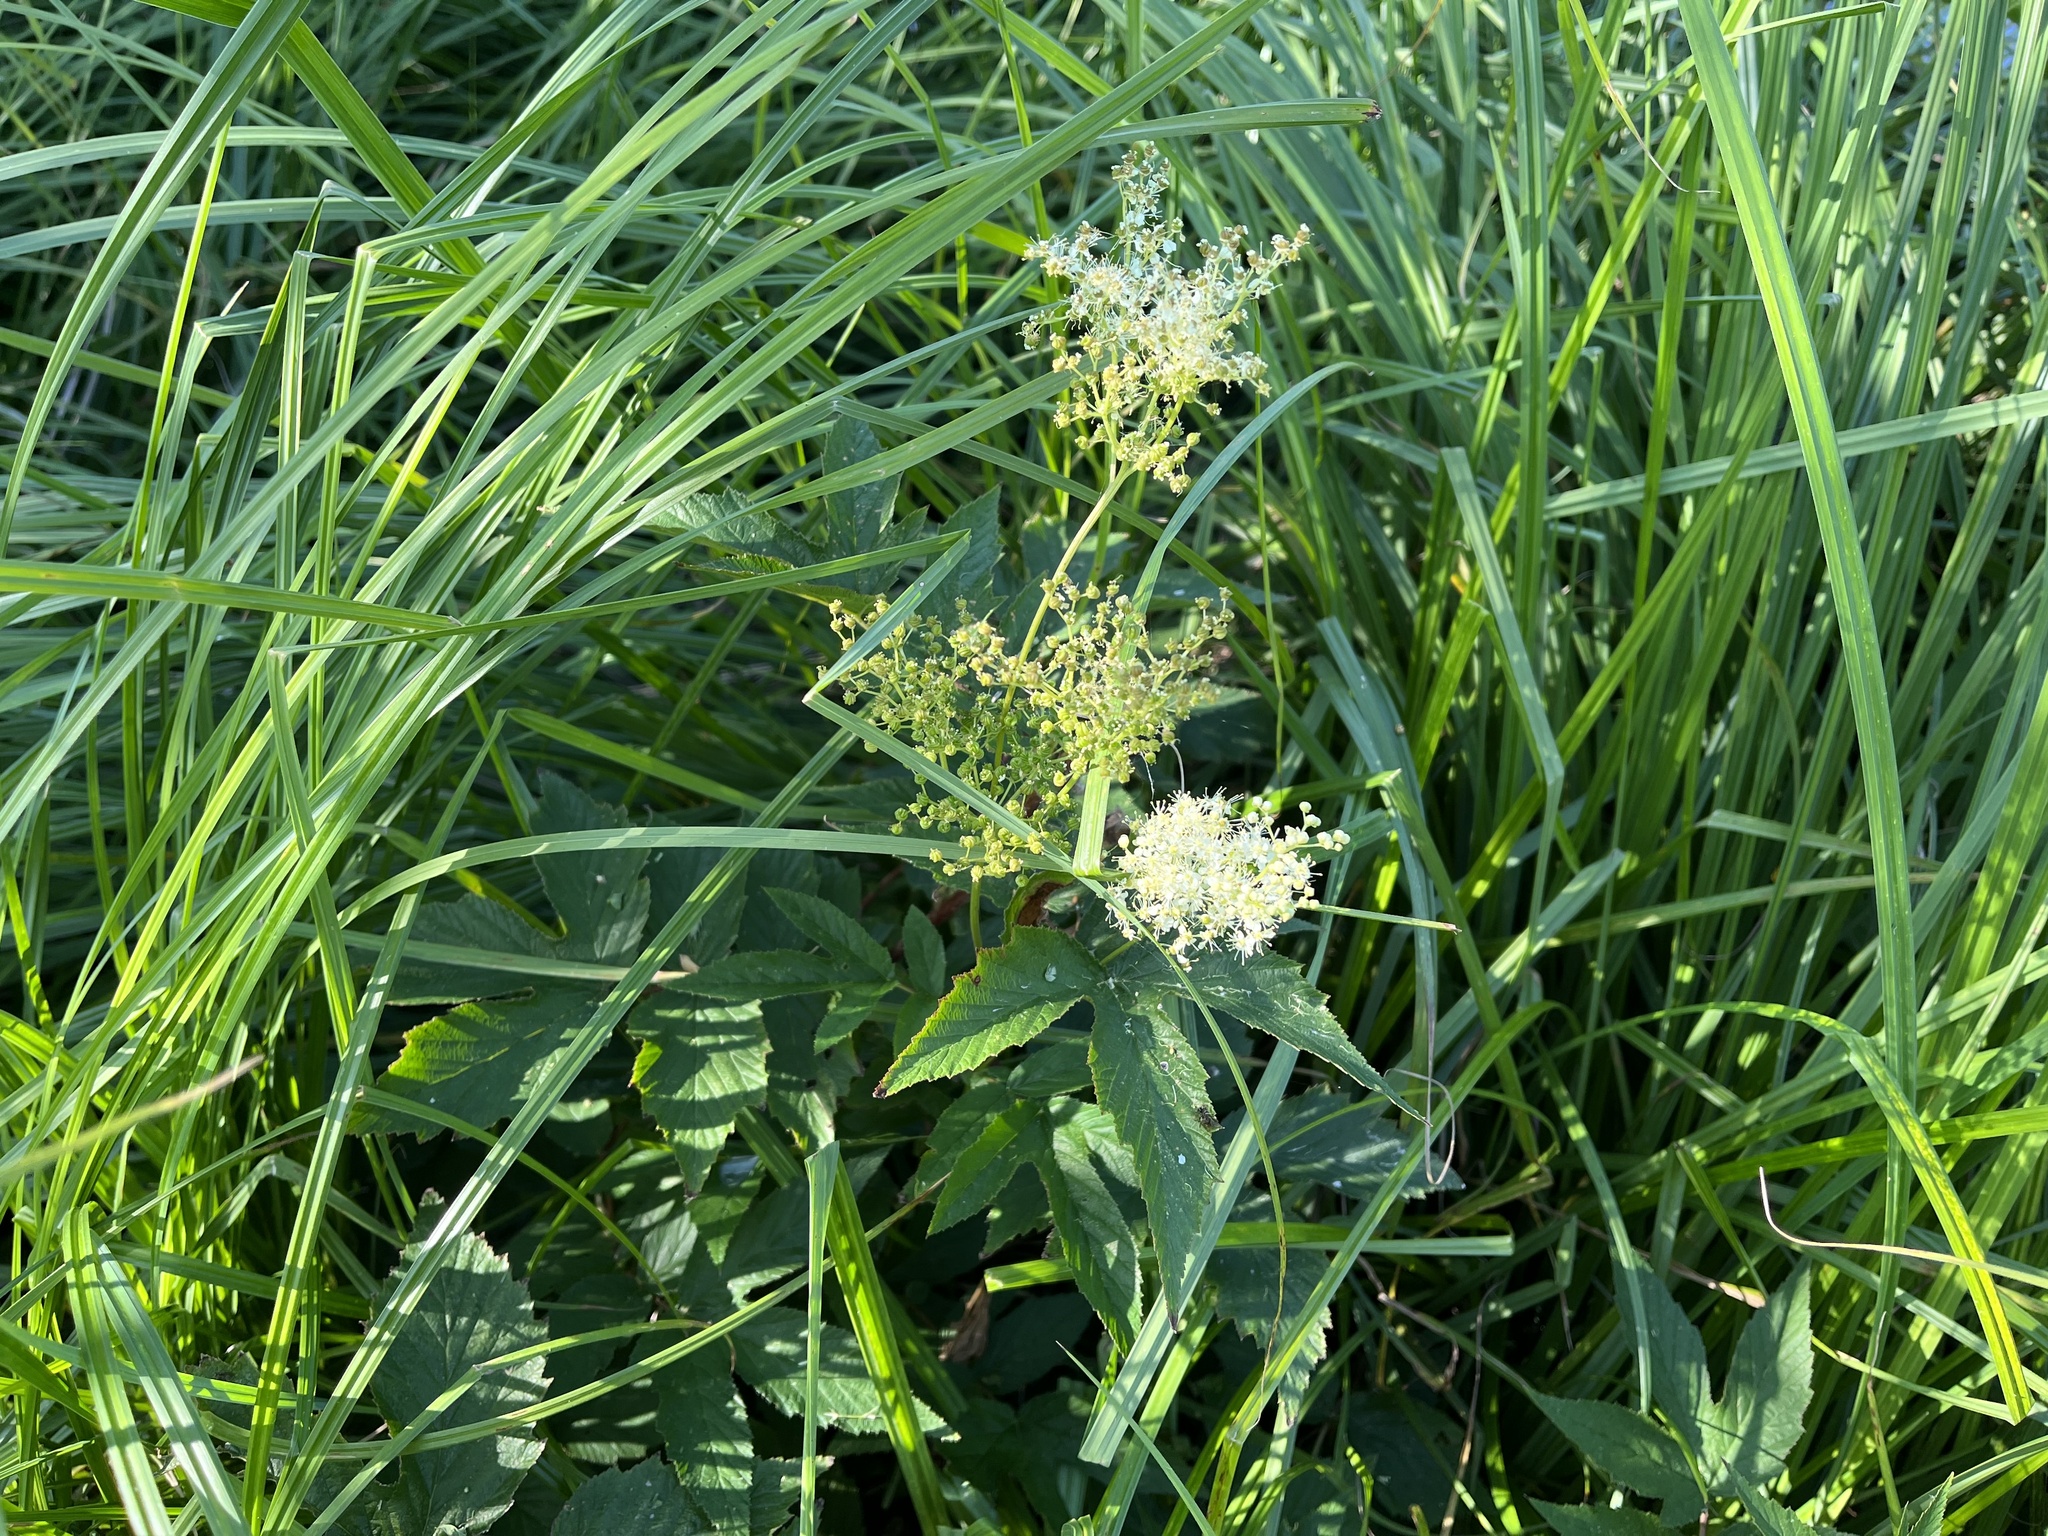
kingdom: Plantae
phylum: Tracheophyta
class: Magnoliopsida
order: Rosales
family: Rosaceae
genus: Filipendula
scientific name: Filipendula ulmaria
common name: Meadowsweet
